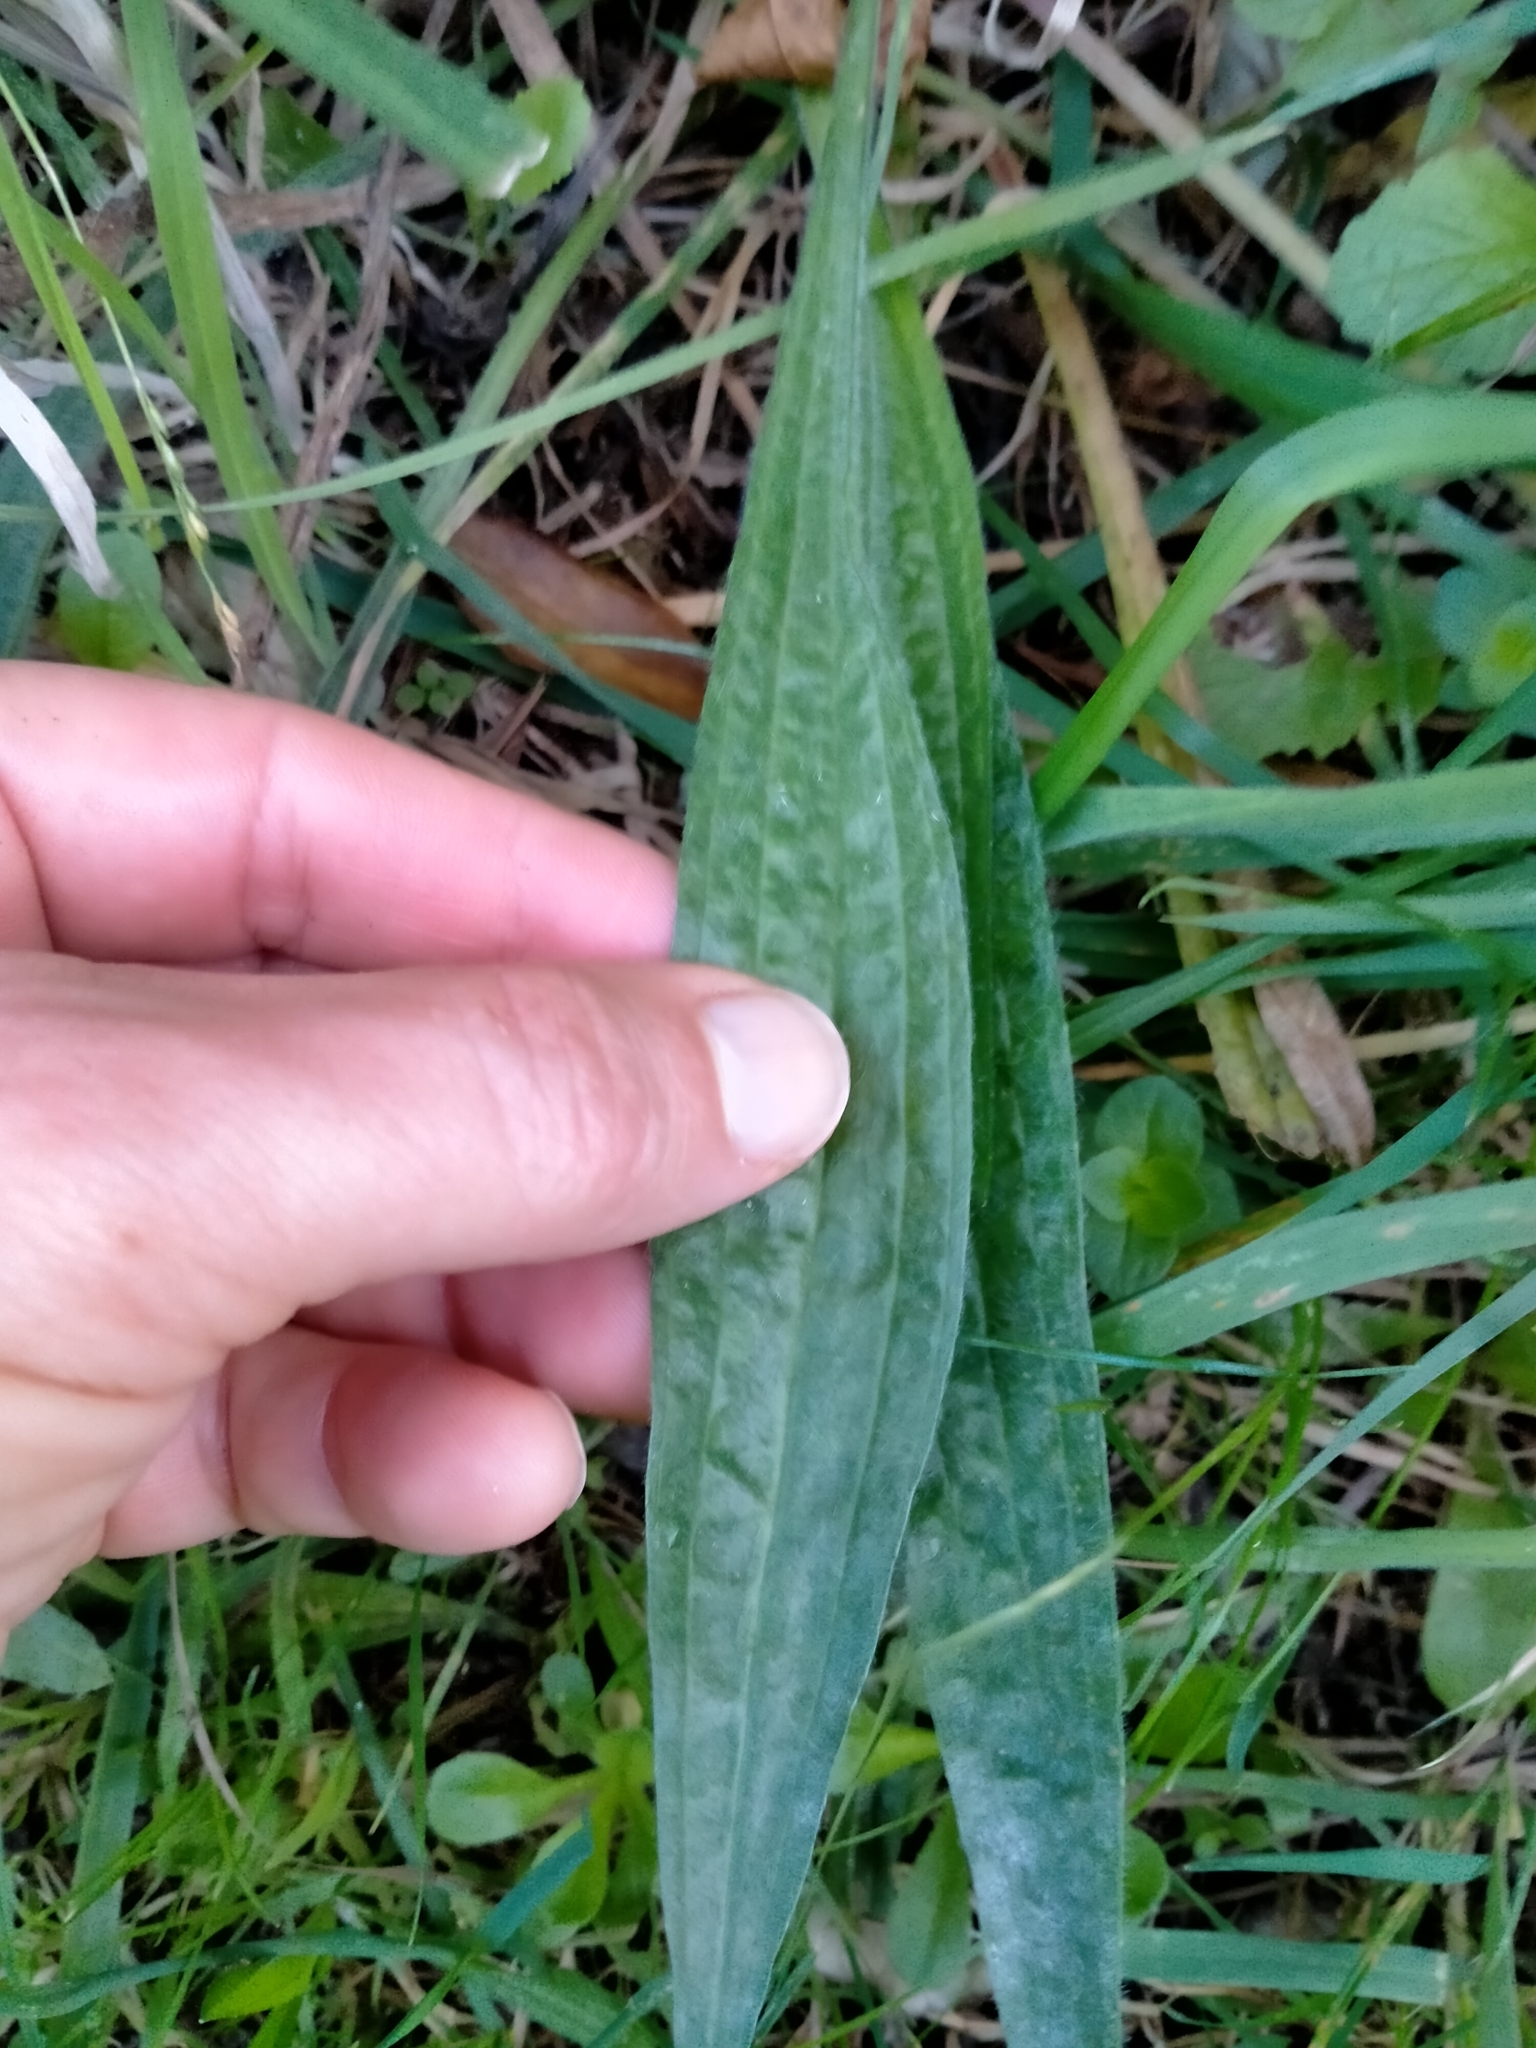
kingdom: Plantae
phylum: Tracheophyta
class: Magnoliopsida
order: Lamiales
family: Plantaginaceae
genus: Plantago
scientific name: Plantago lanceolata
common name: Ribwort plantain
